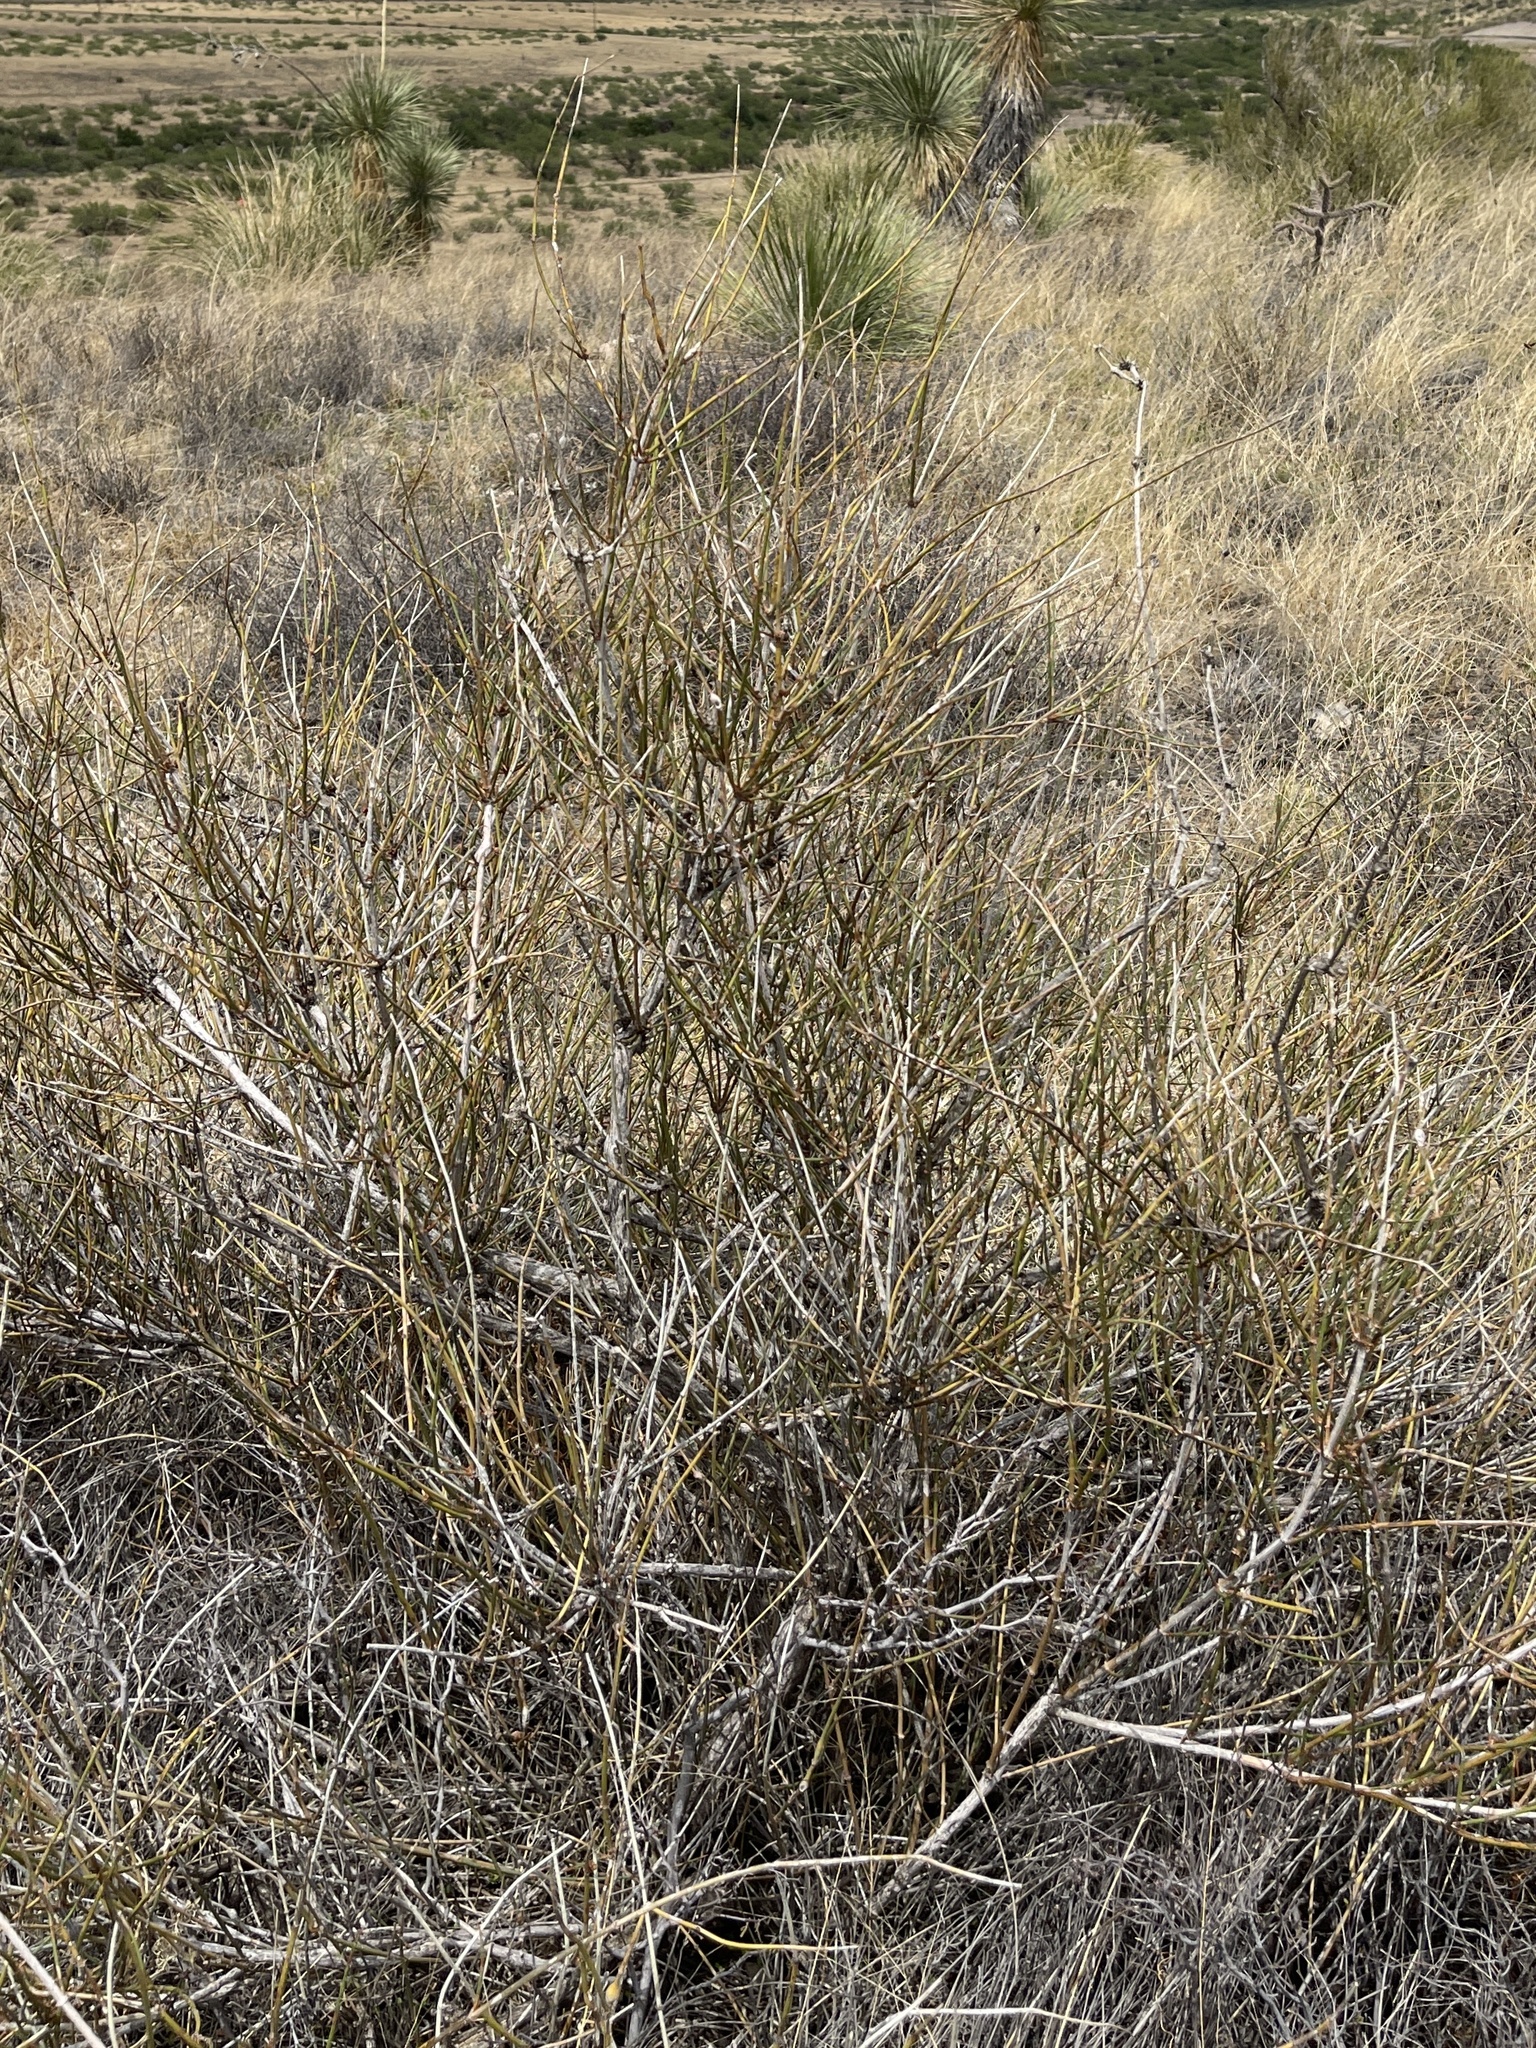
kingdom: Plantae
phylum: Tracheophyta
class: Gnetopsida
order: Ephedrales
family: Ephedraceae
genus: Ephedra
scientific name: Ephedra trifurca
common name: Mexican-tea
